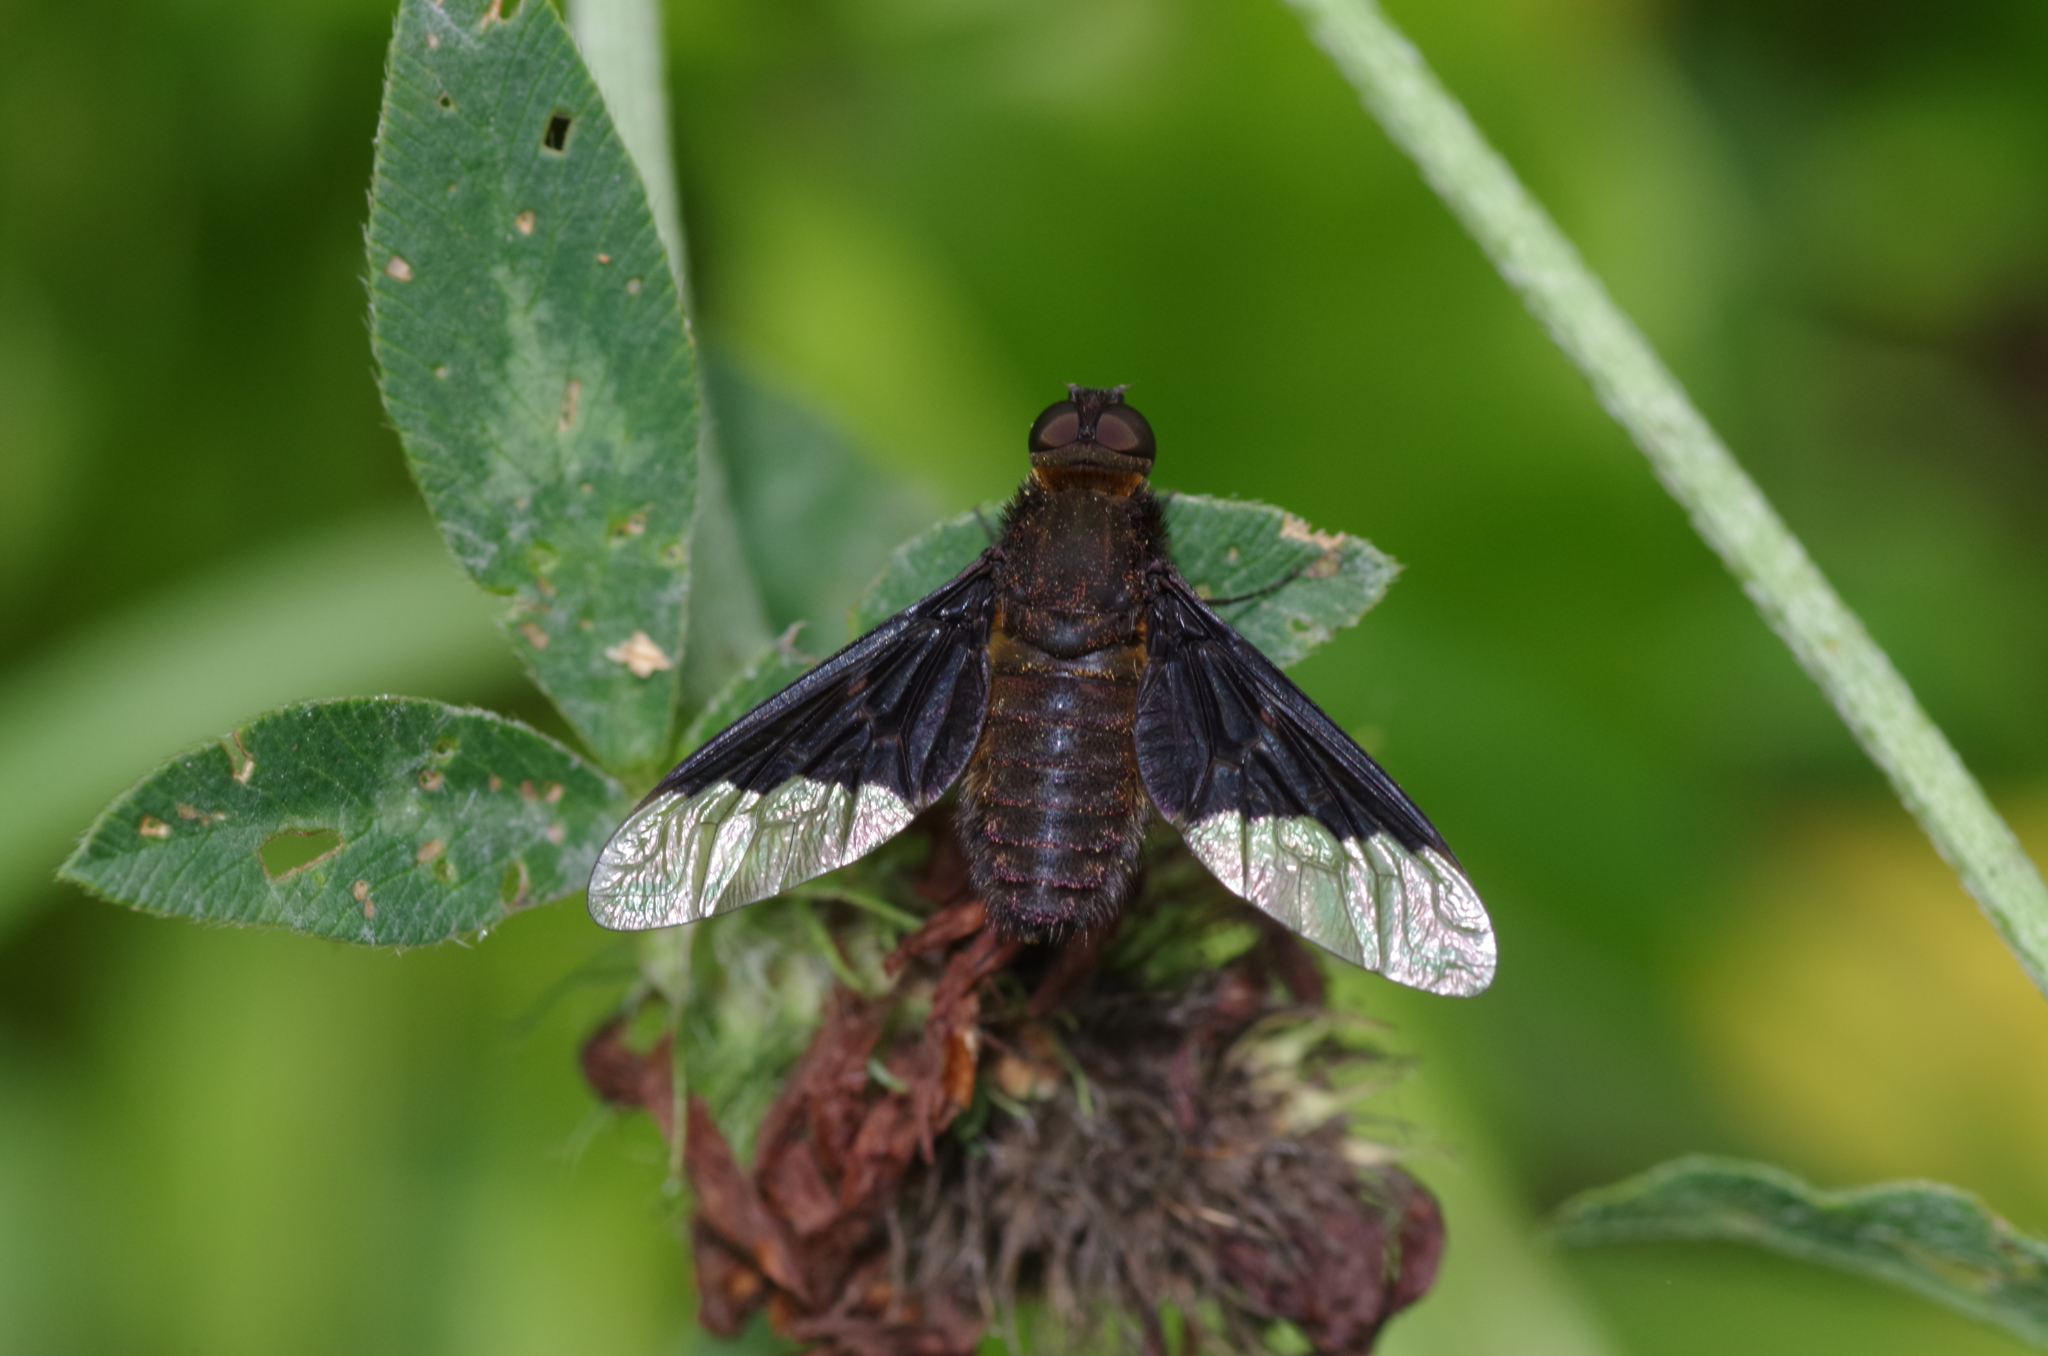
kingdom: Animalia
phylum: Arthropoda
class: Insecta
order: Diptera
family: Bombyliidae
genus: Hemipenthes
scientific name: Hemipenthes morio
